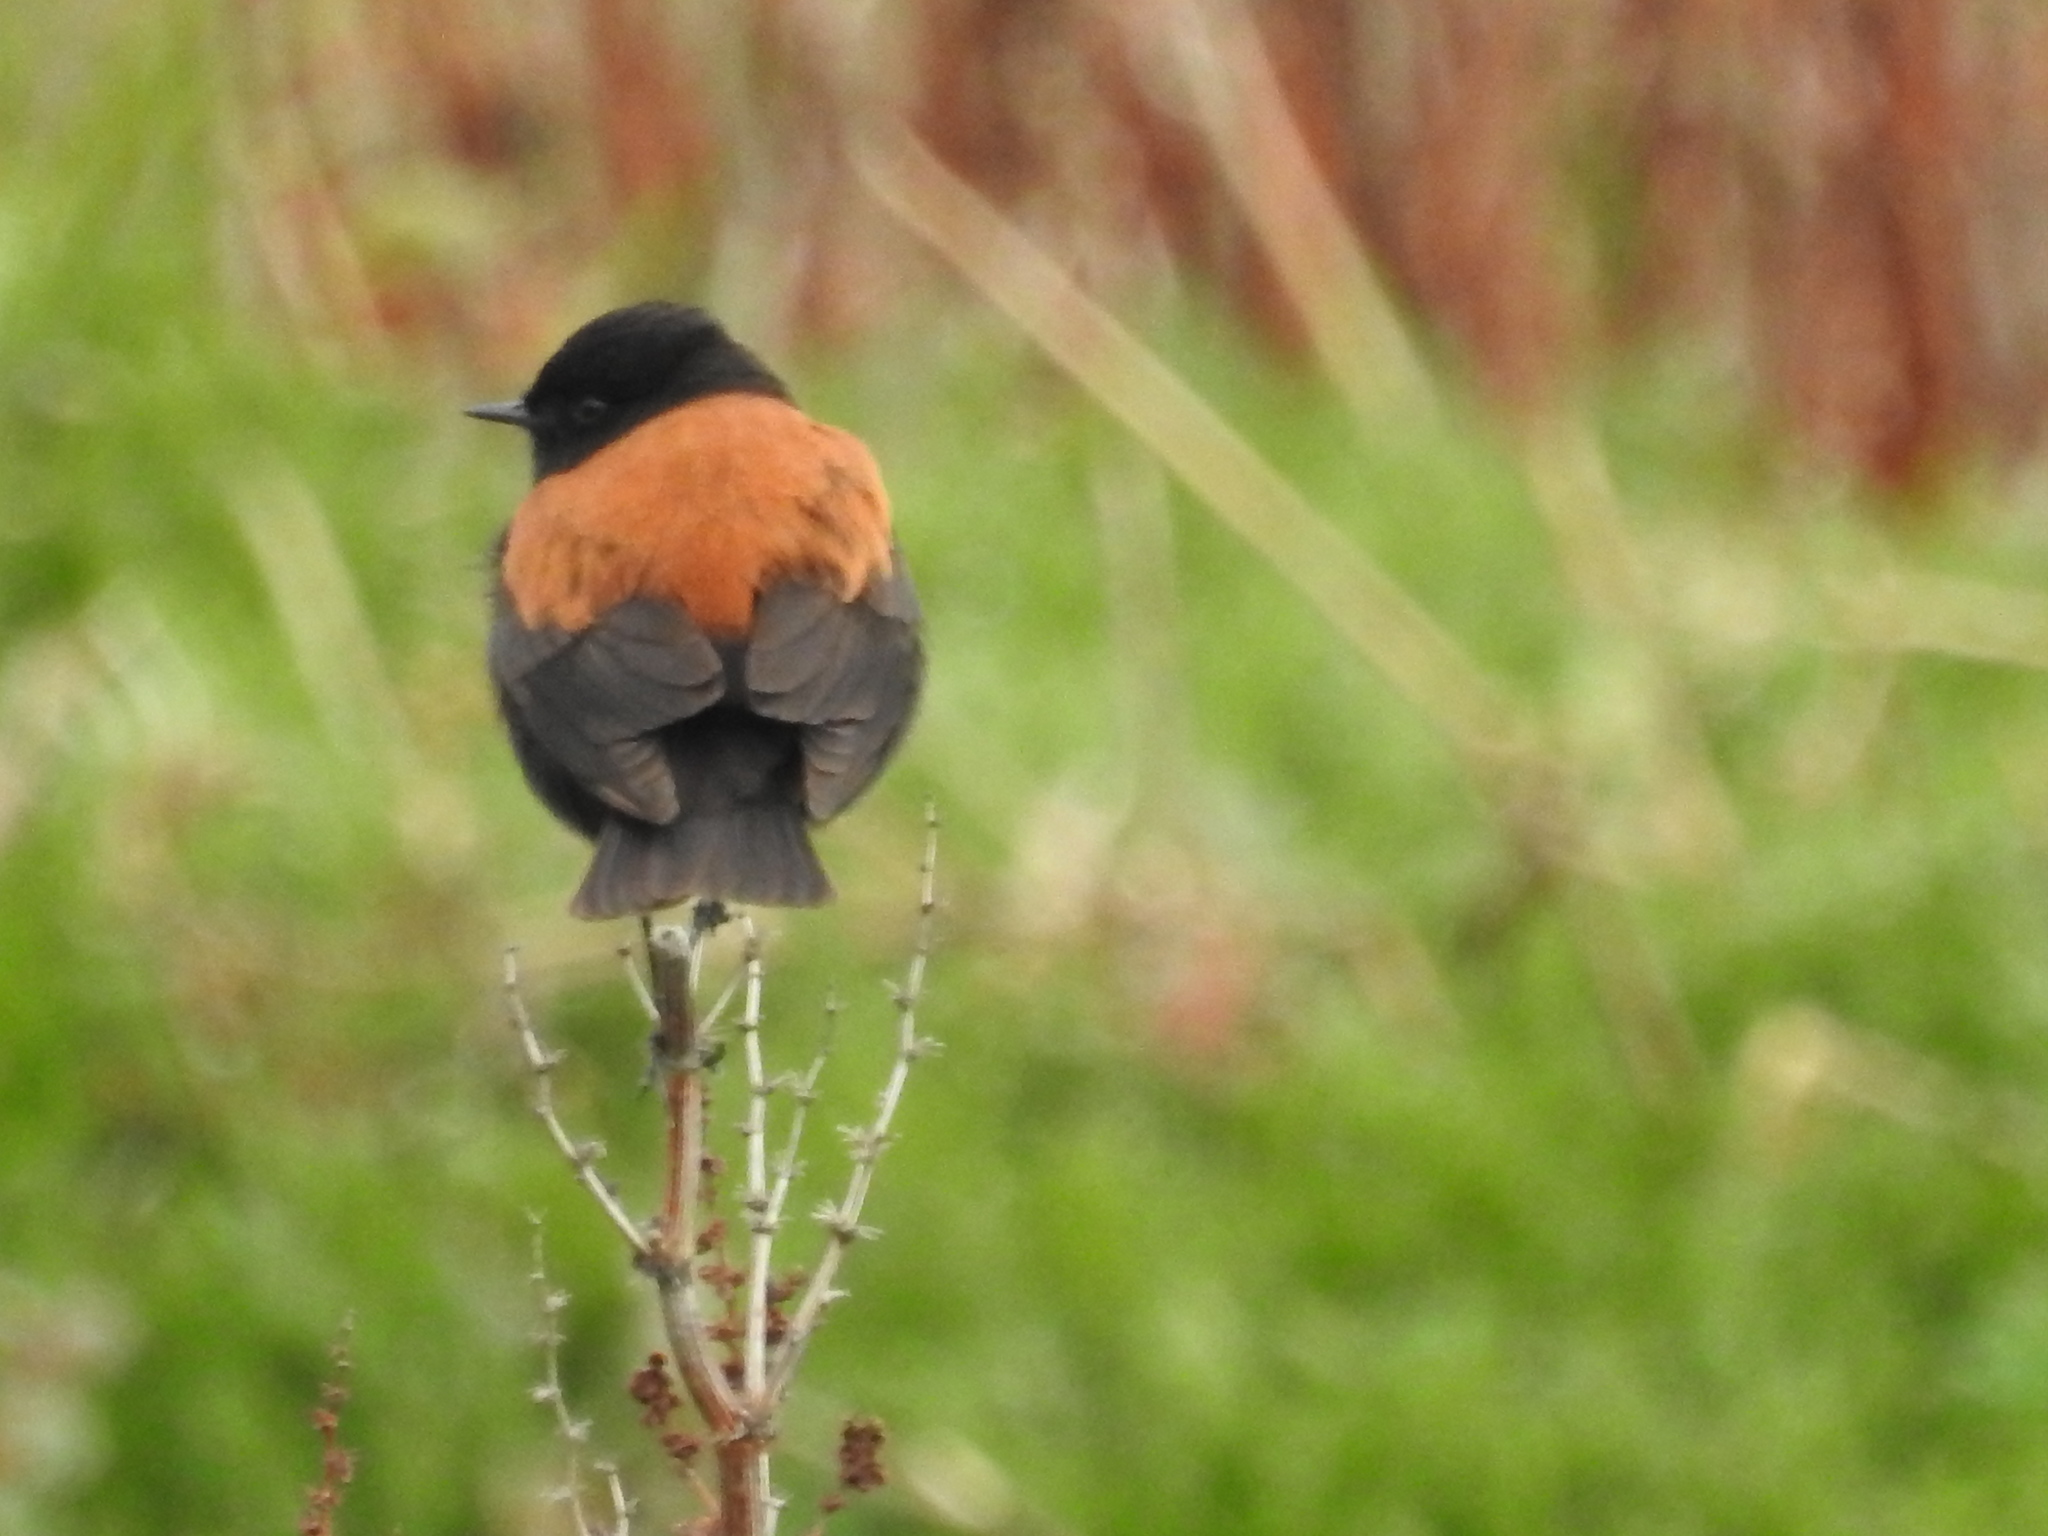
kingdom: Animalia
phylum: Chordata
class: Aves
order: Passeriformes
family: Tyrannidae
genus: Lessonia
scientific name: Lessonia rufa
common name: Austral negrito
